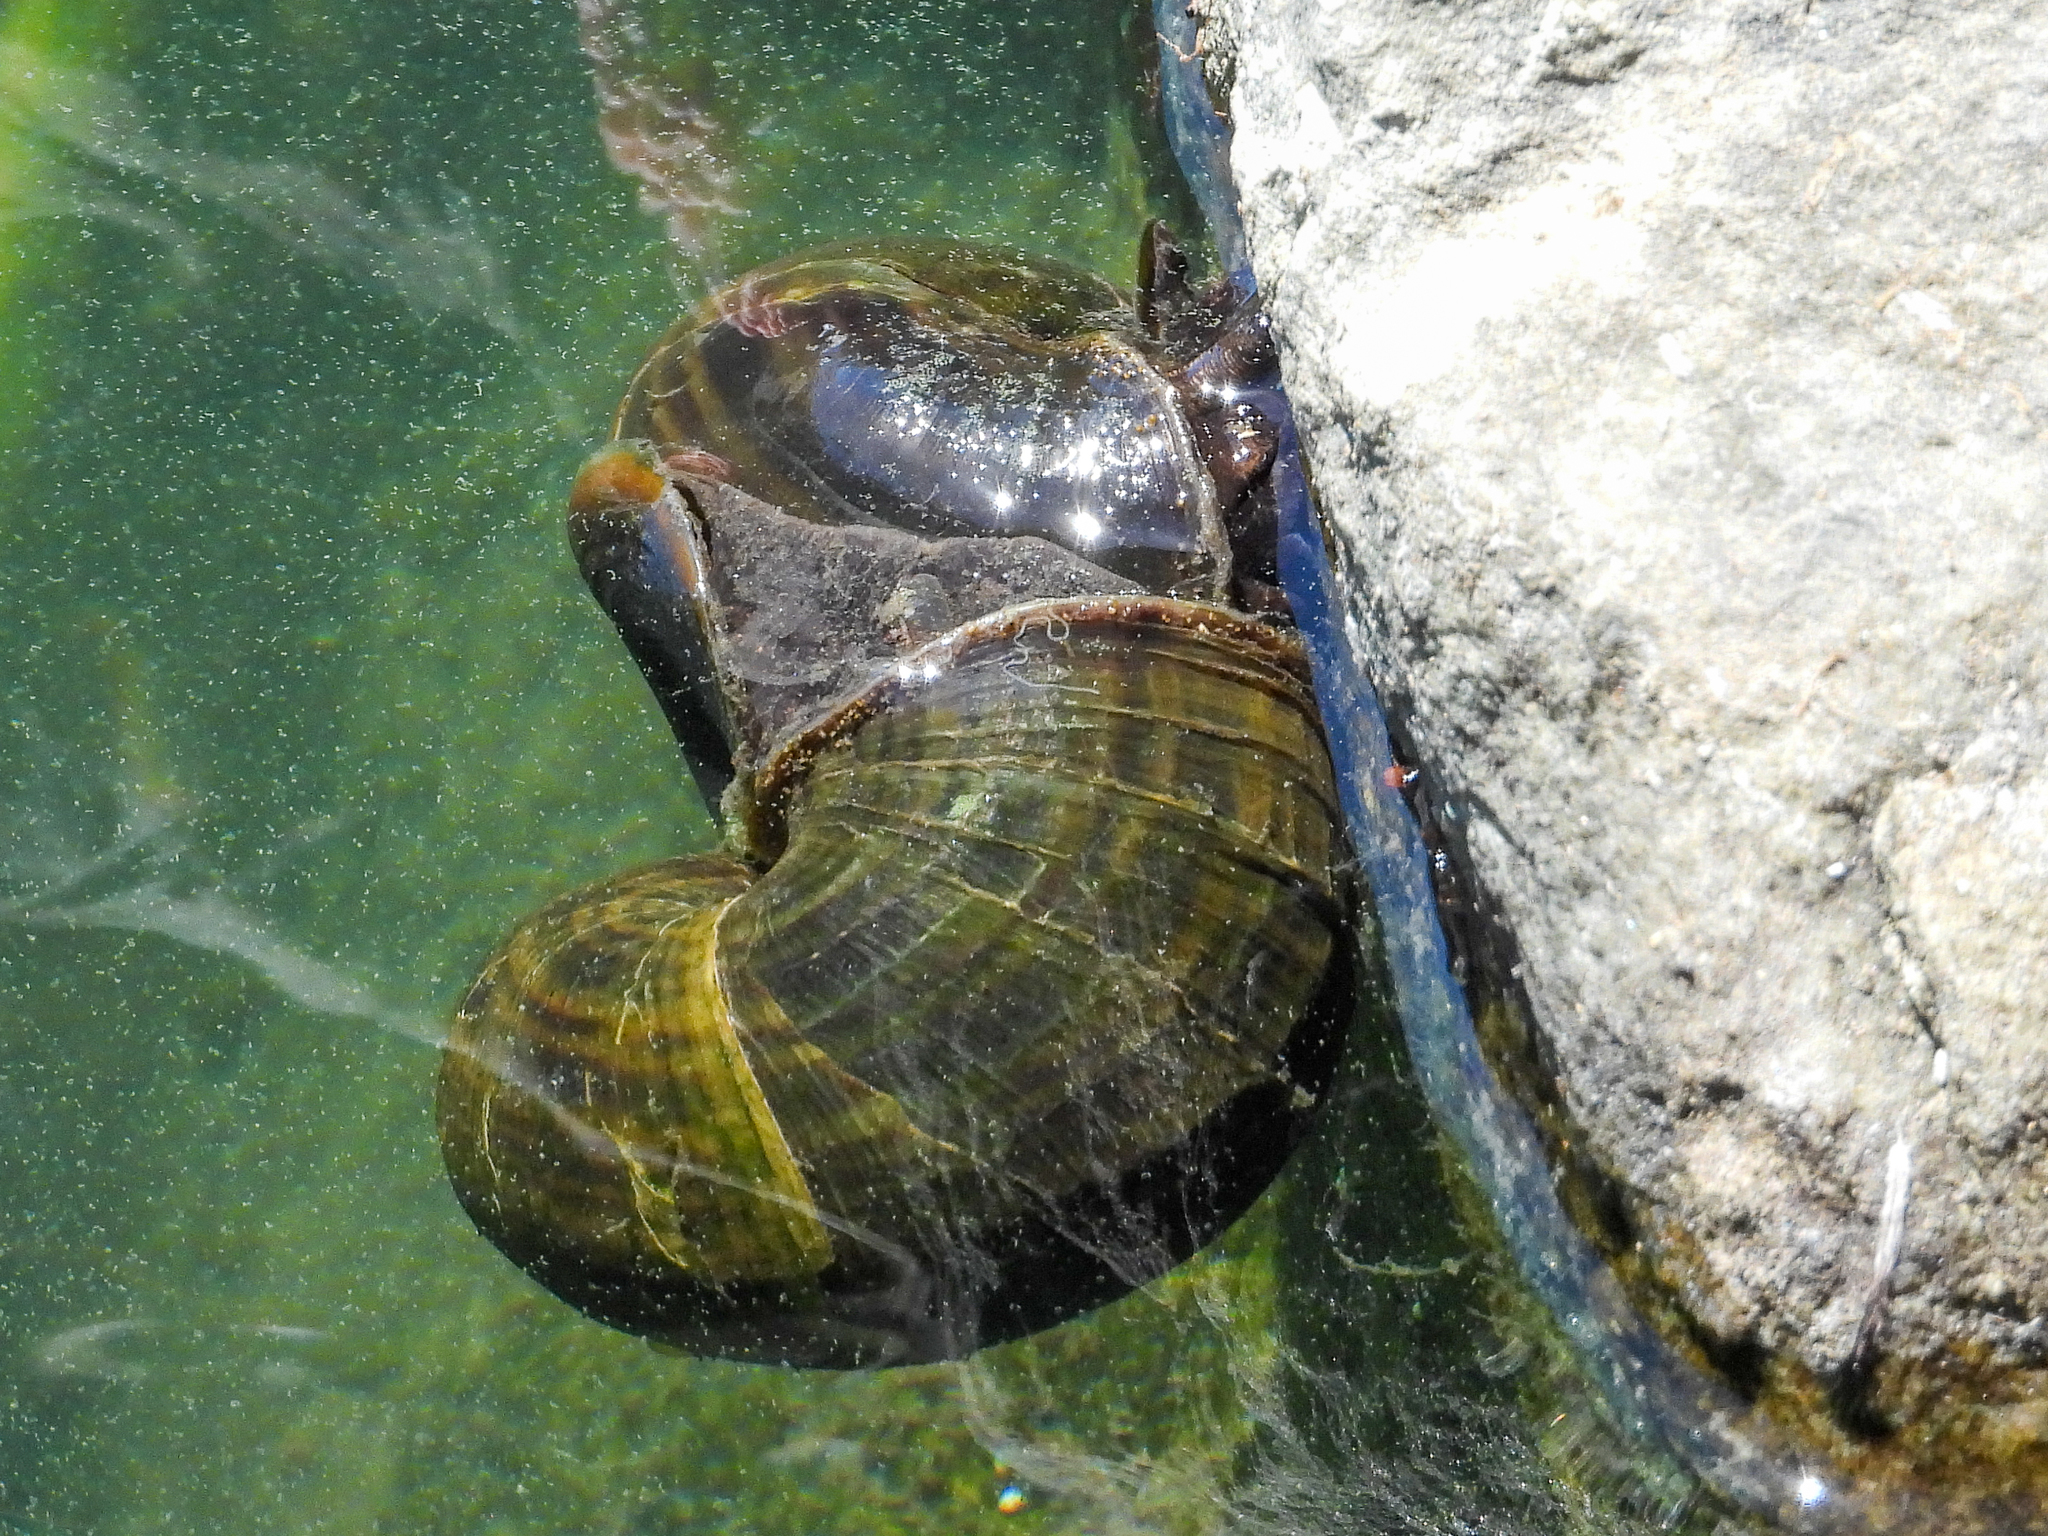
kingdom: Animalia
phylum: Mollusca
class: Gastropoda
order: Architaenioglossa
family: Ampullariidae
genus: Pomacea
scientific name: Pomacea canaliculata
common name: Channeled applesnail
